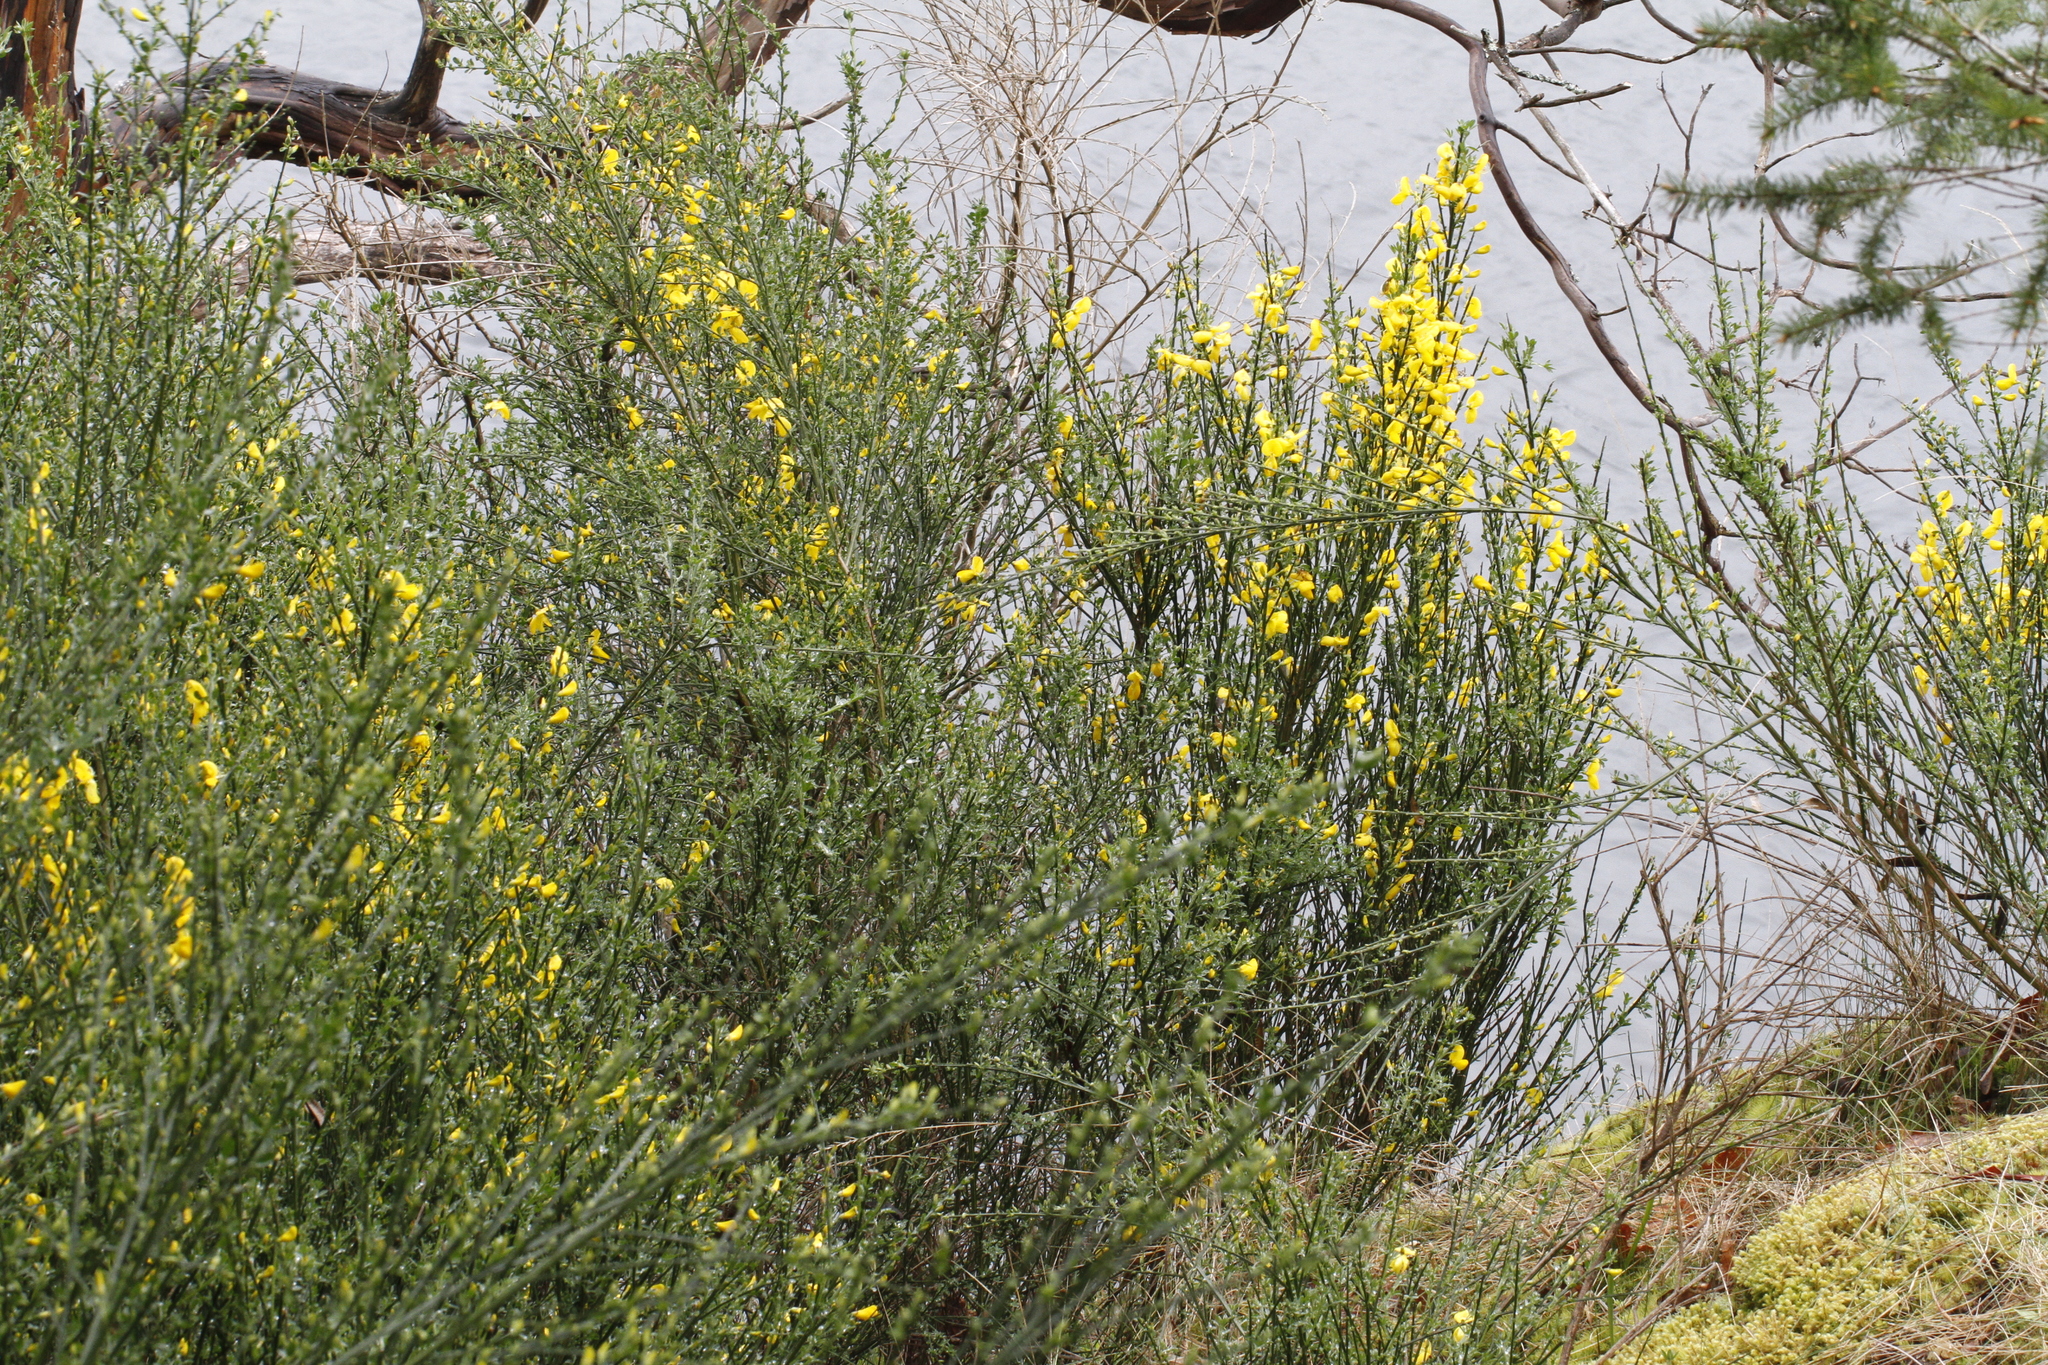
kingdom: Plantae
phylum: Tracheophyta
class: Magnoliopsida
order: Fabales
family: Fabaceae
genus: Cytisus
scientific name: Cytisus scoparius
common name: Scotch broom
